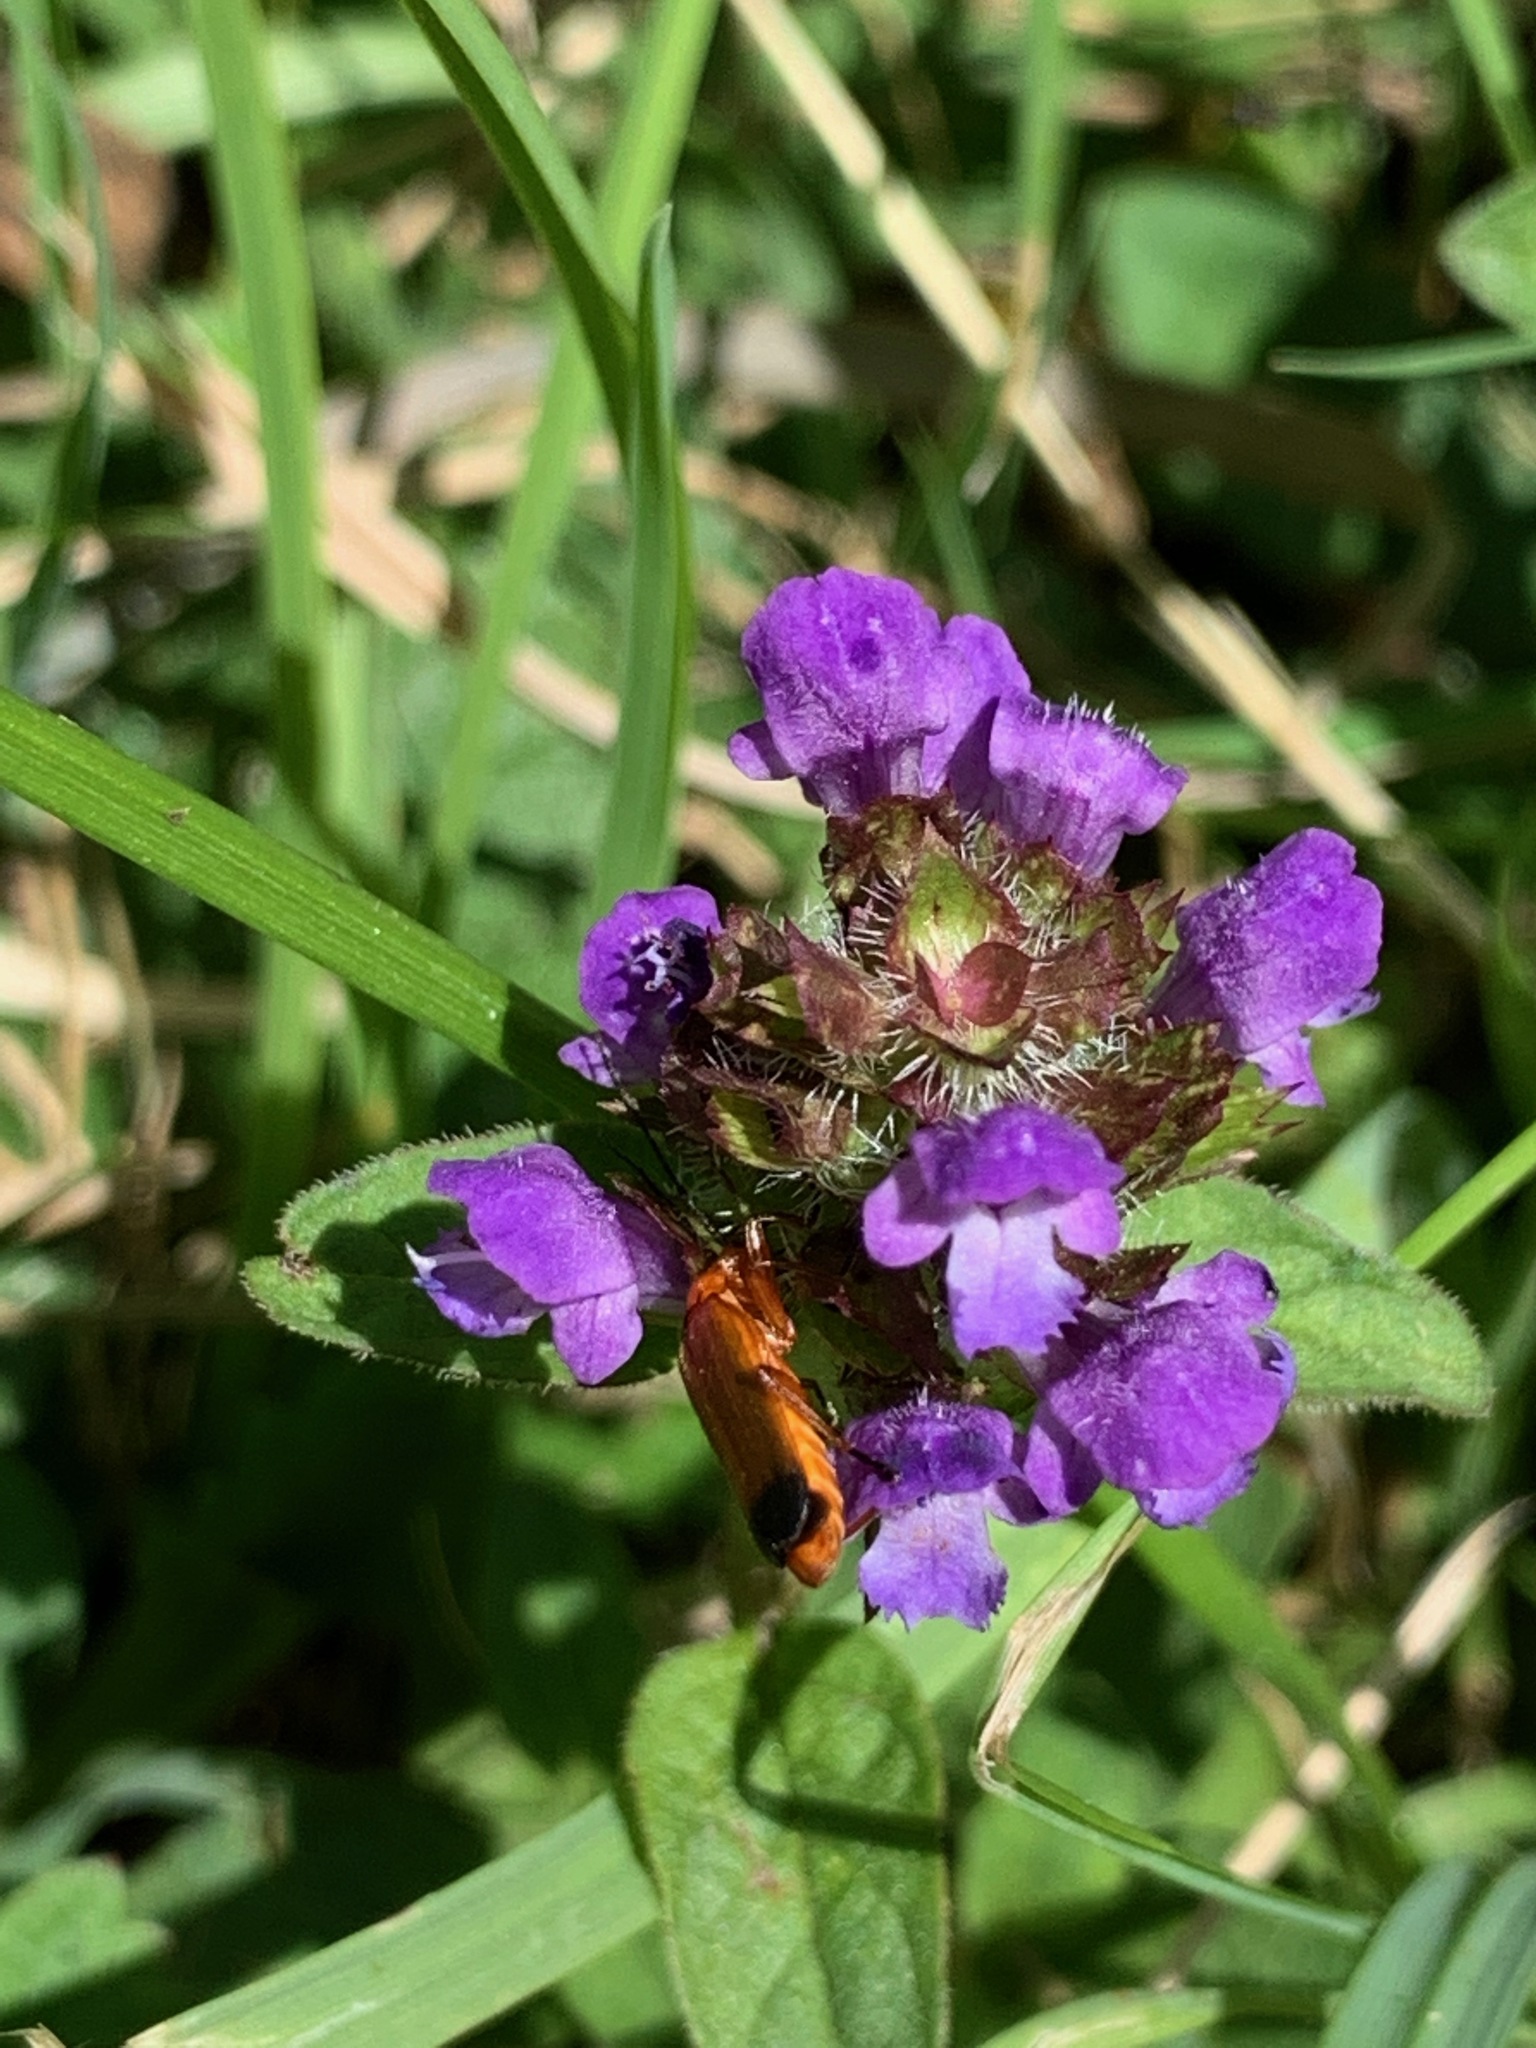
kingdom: Animalia
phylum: Arthropoda
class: Insecta
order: Coleoptera
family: Cantharidae
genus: Rhagonycha
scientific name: Rhagonycha fulva
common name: Common red soldier beetle
